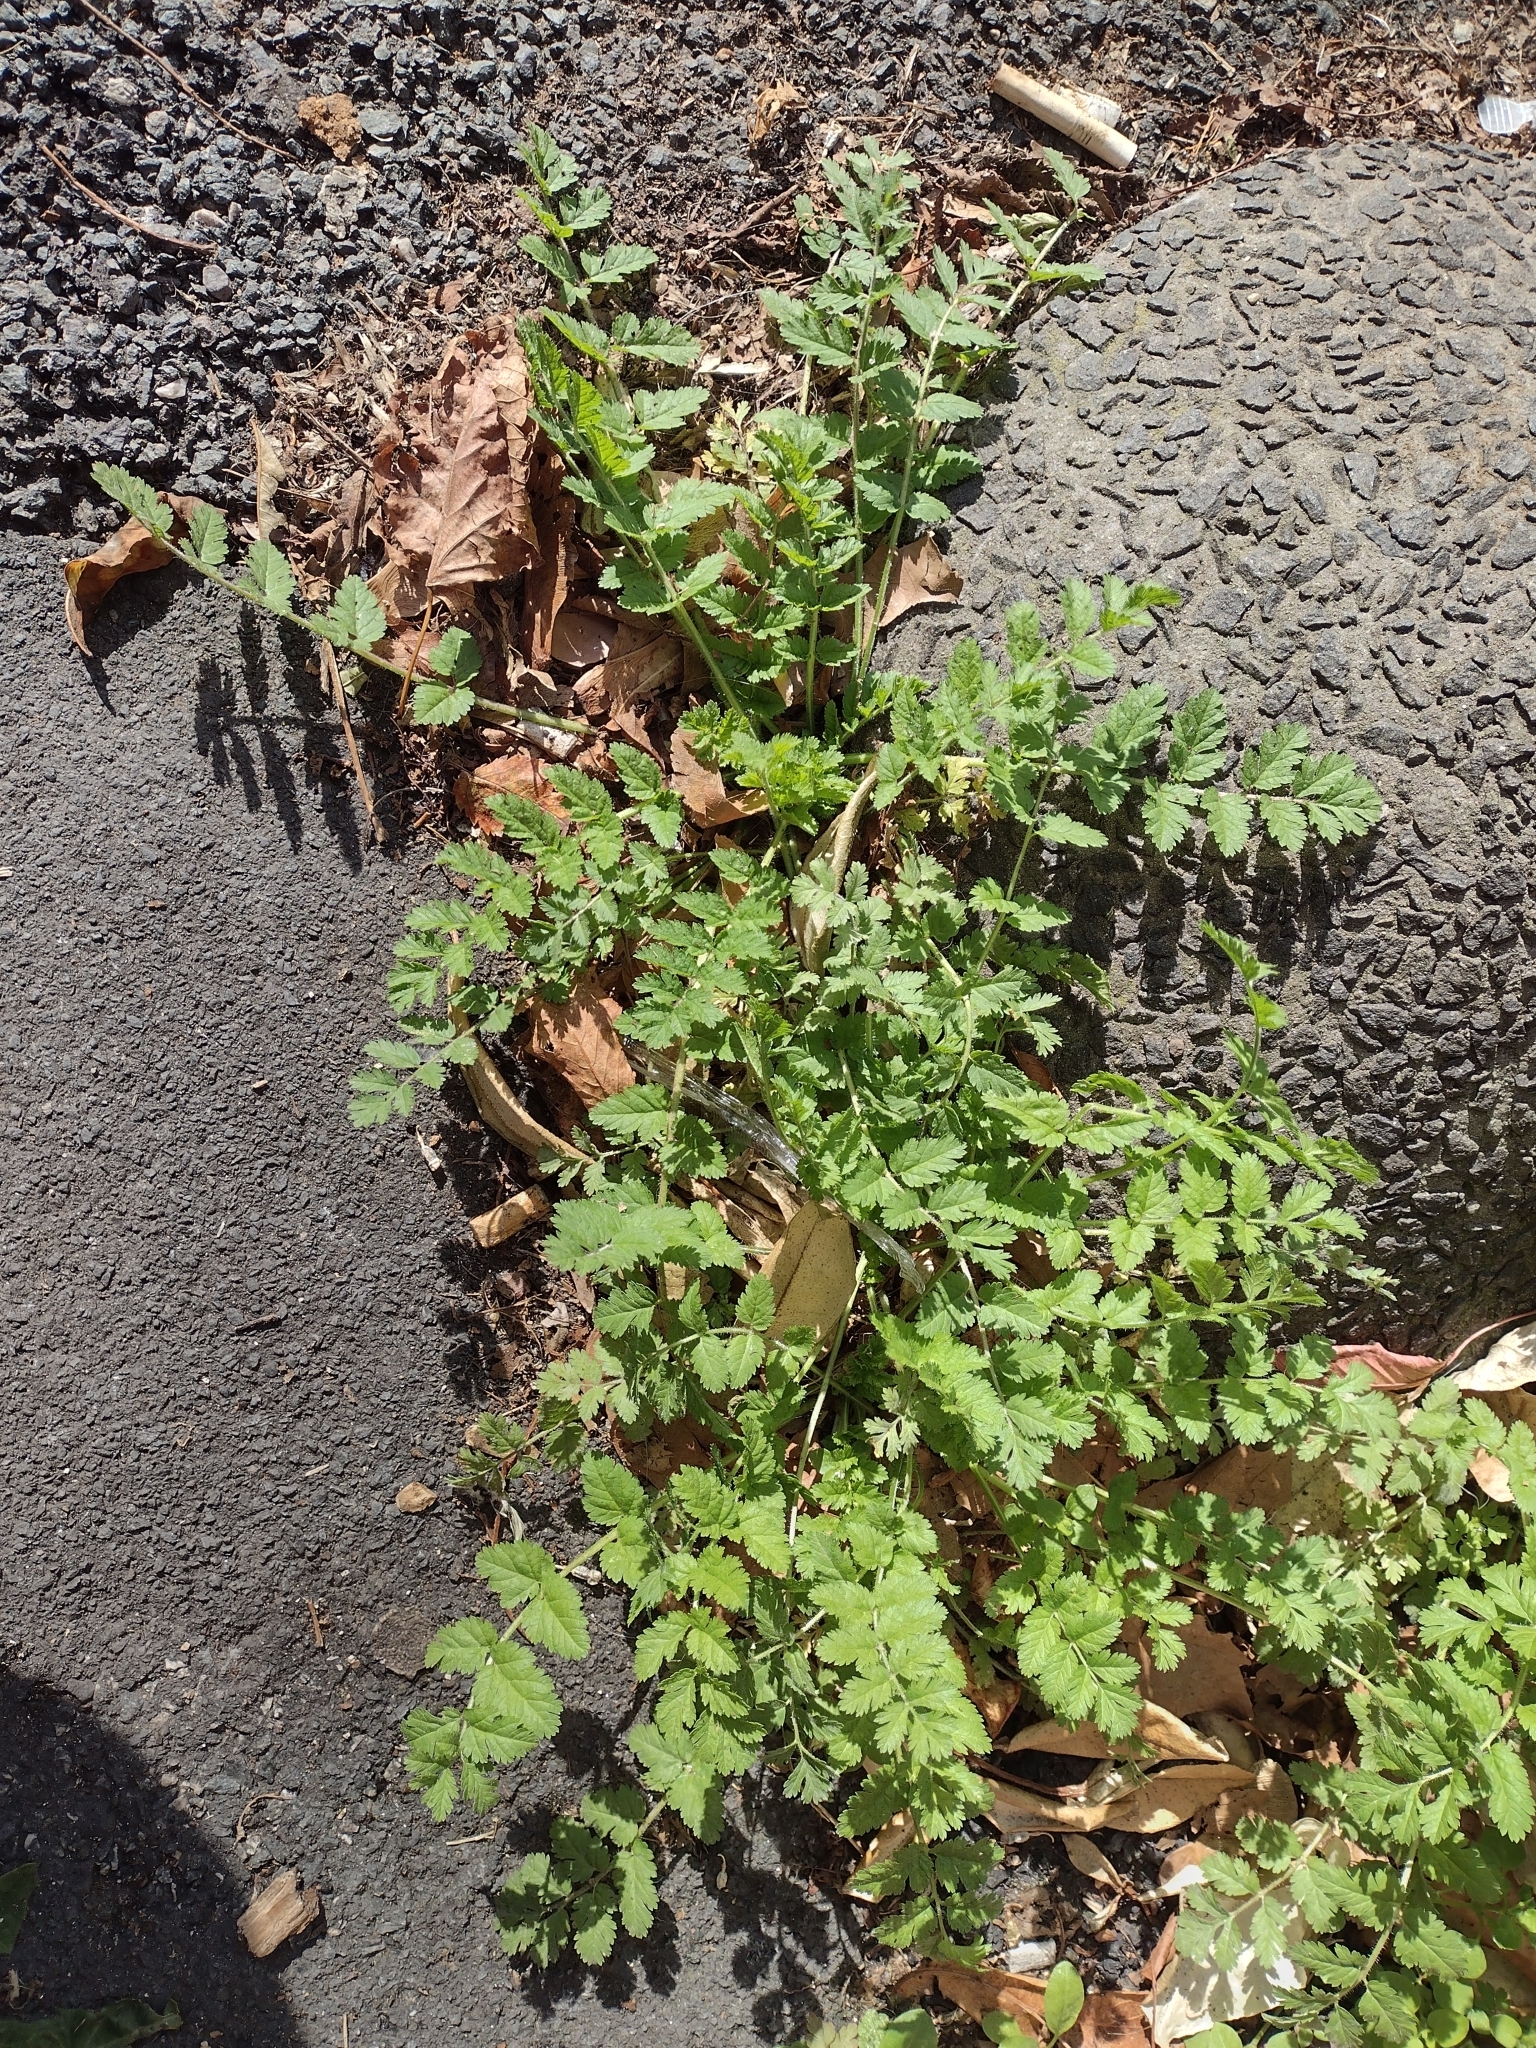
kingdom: Plantae
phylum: Tracheophyta
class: Magnoliopsida
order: Geraniales
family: Geraniaceae
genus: Erodium
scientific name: Erodium moschatum
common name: Musk stork's-bill
